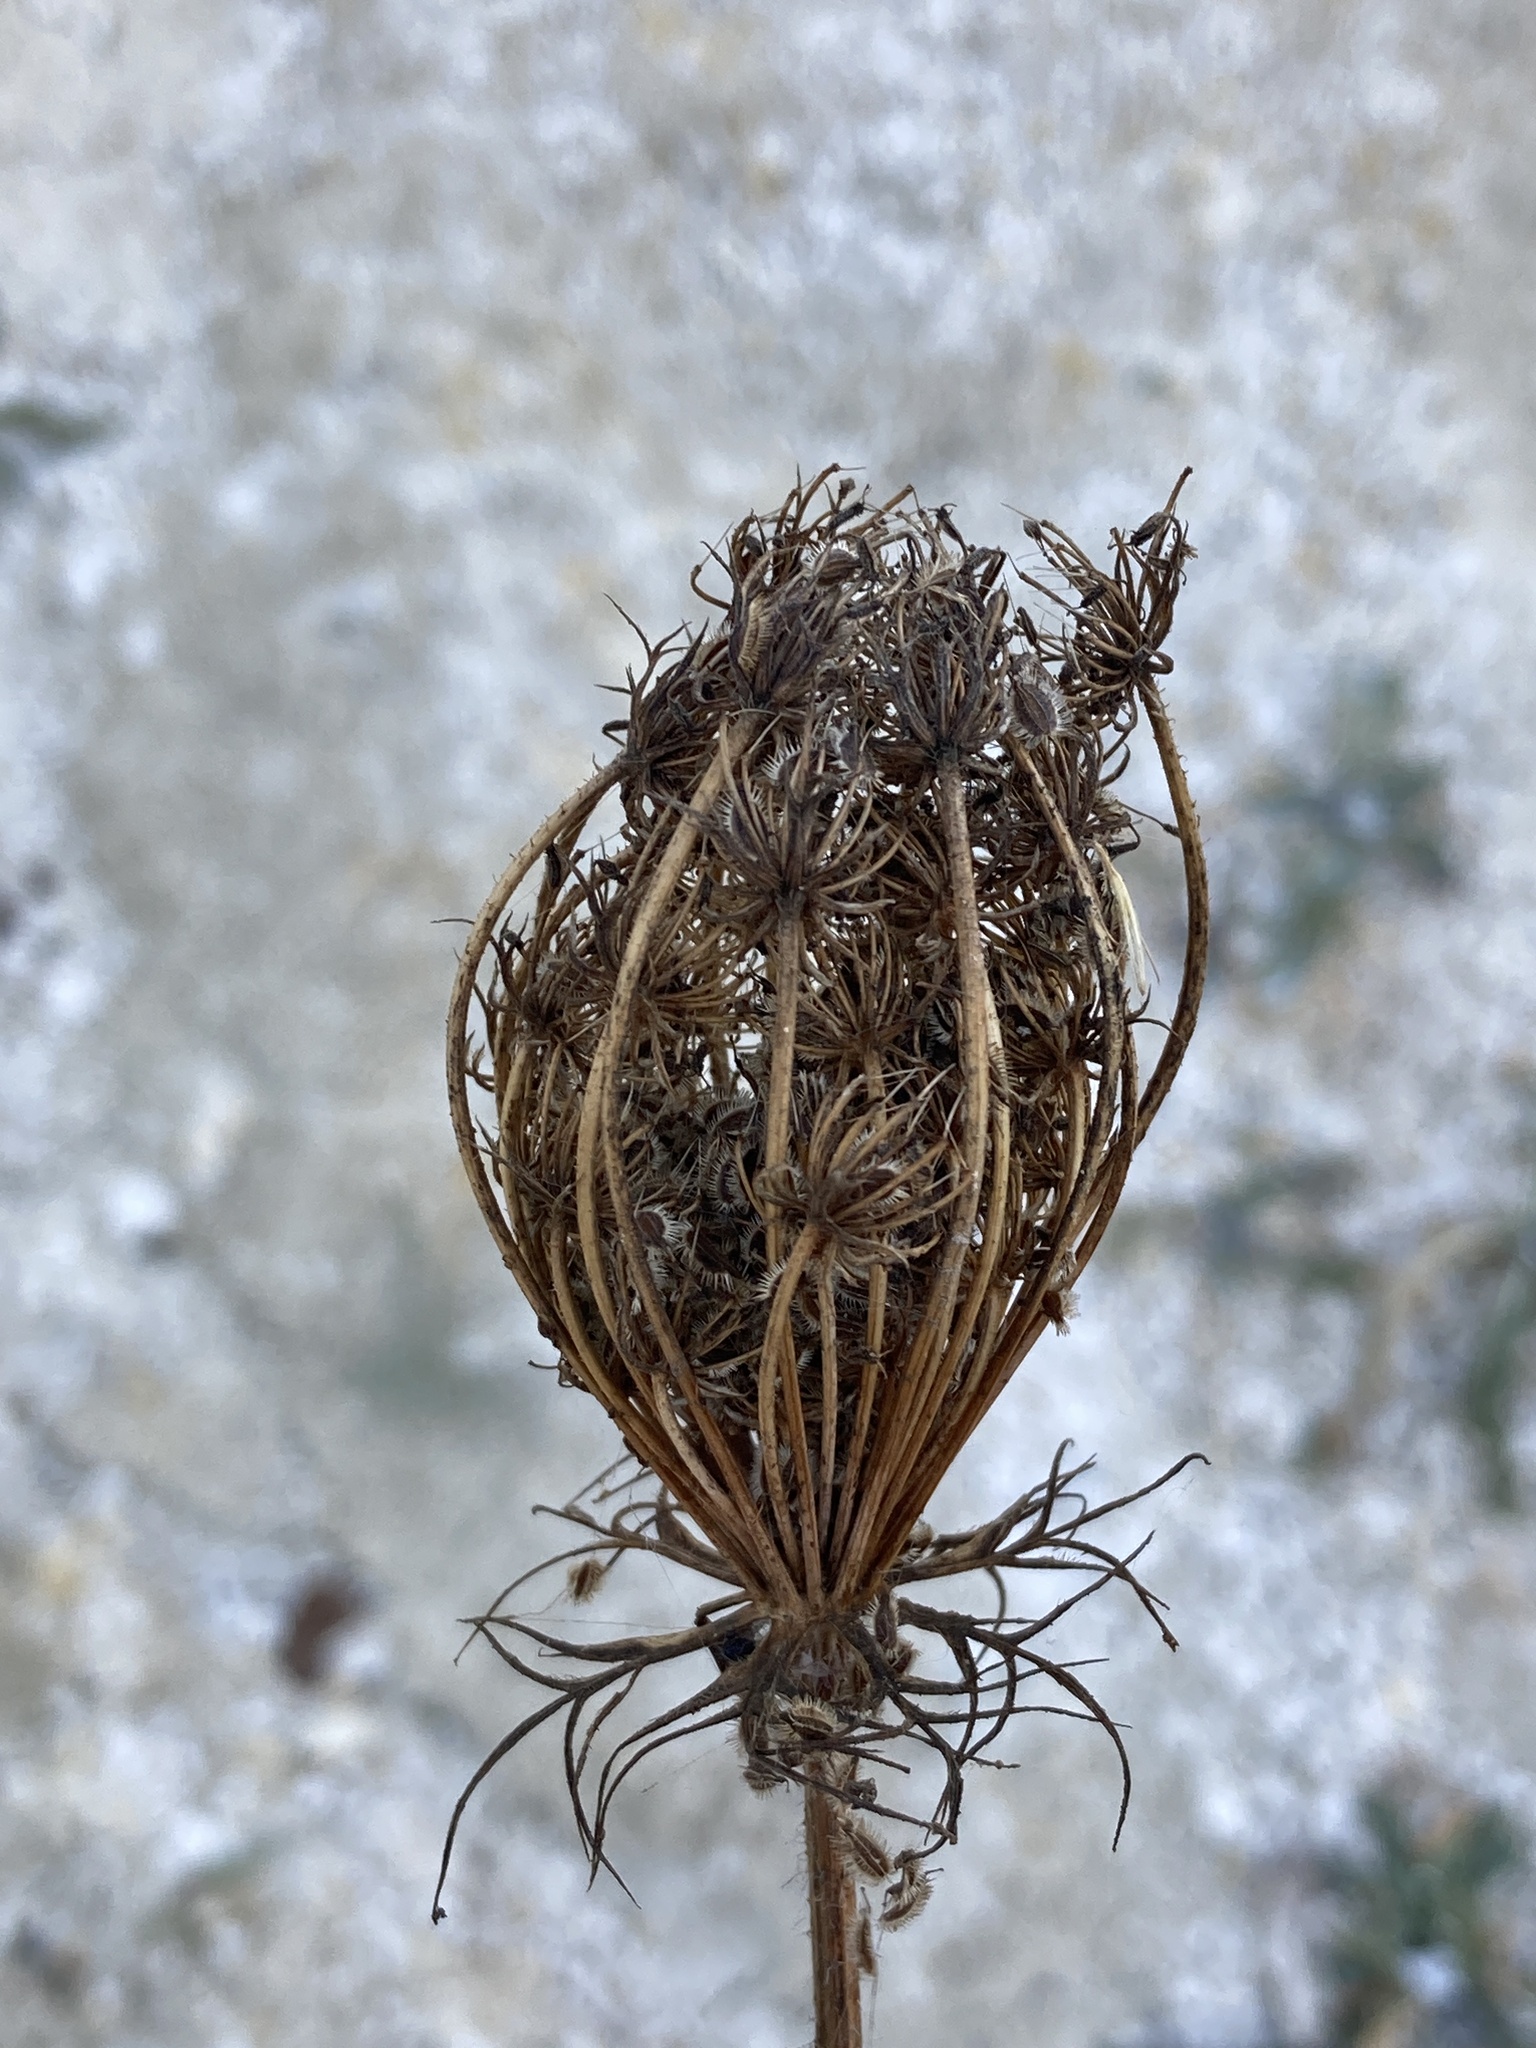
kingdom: Plantae
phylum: Tracheophyta
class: Magnoliopsida
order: Apiales
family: Apiaceae
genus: Daucus
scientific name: Daucus carota
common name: Wild carrot
